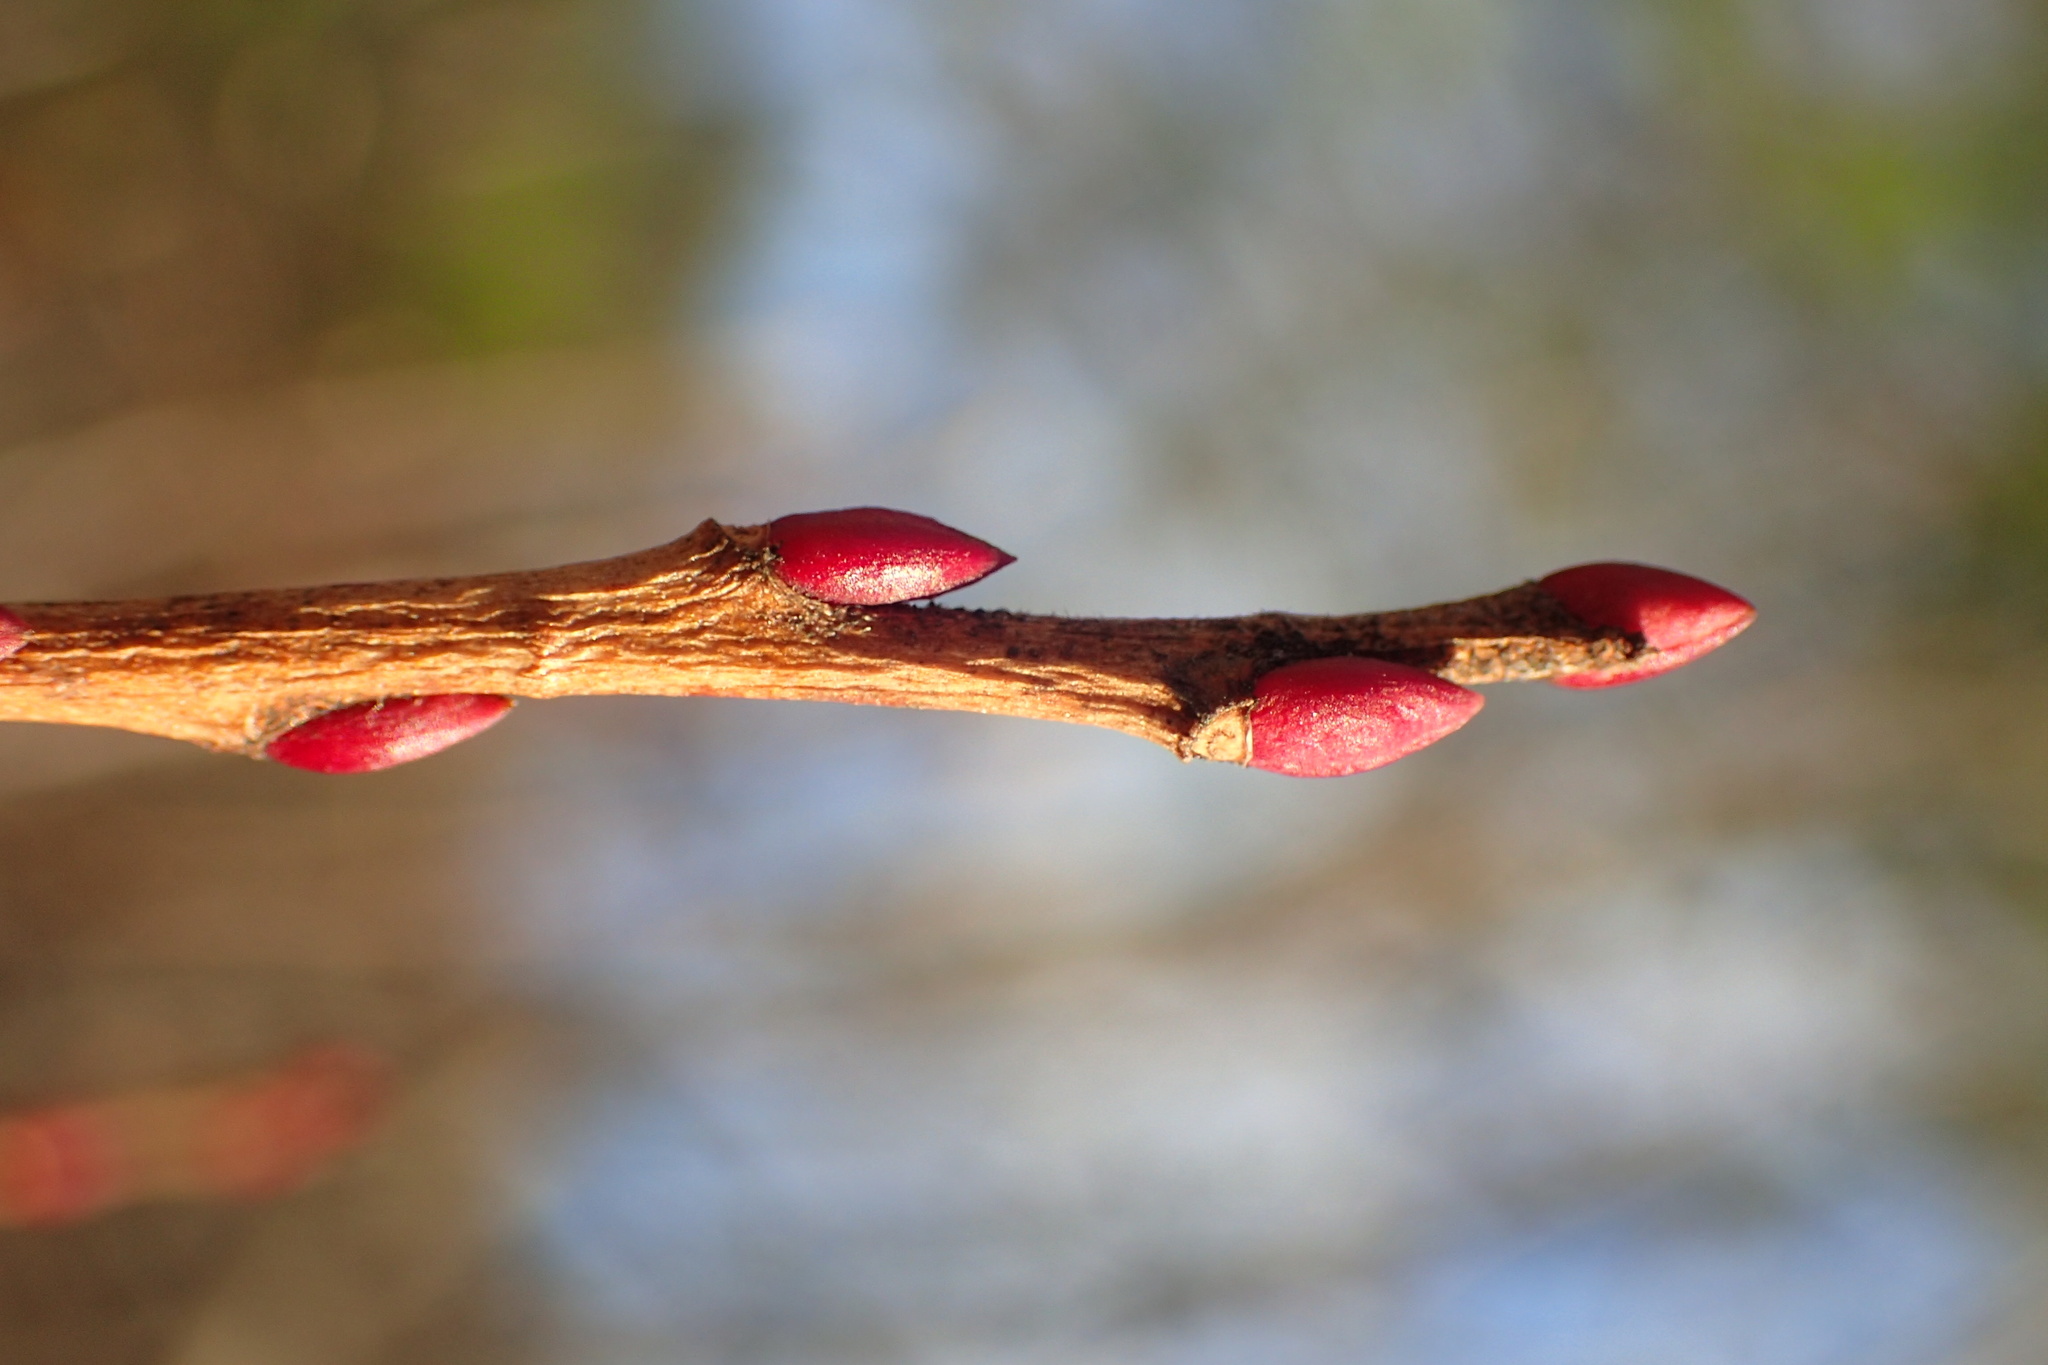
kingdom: Plantae
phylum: Tracheophyta
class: Magnoliopsida
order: Ericales
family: Ericaceae
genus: Lyonia
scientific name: Lyonia ligustrina
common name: Maleberry
